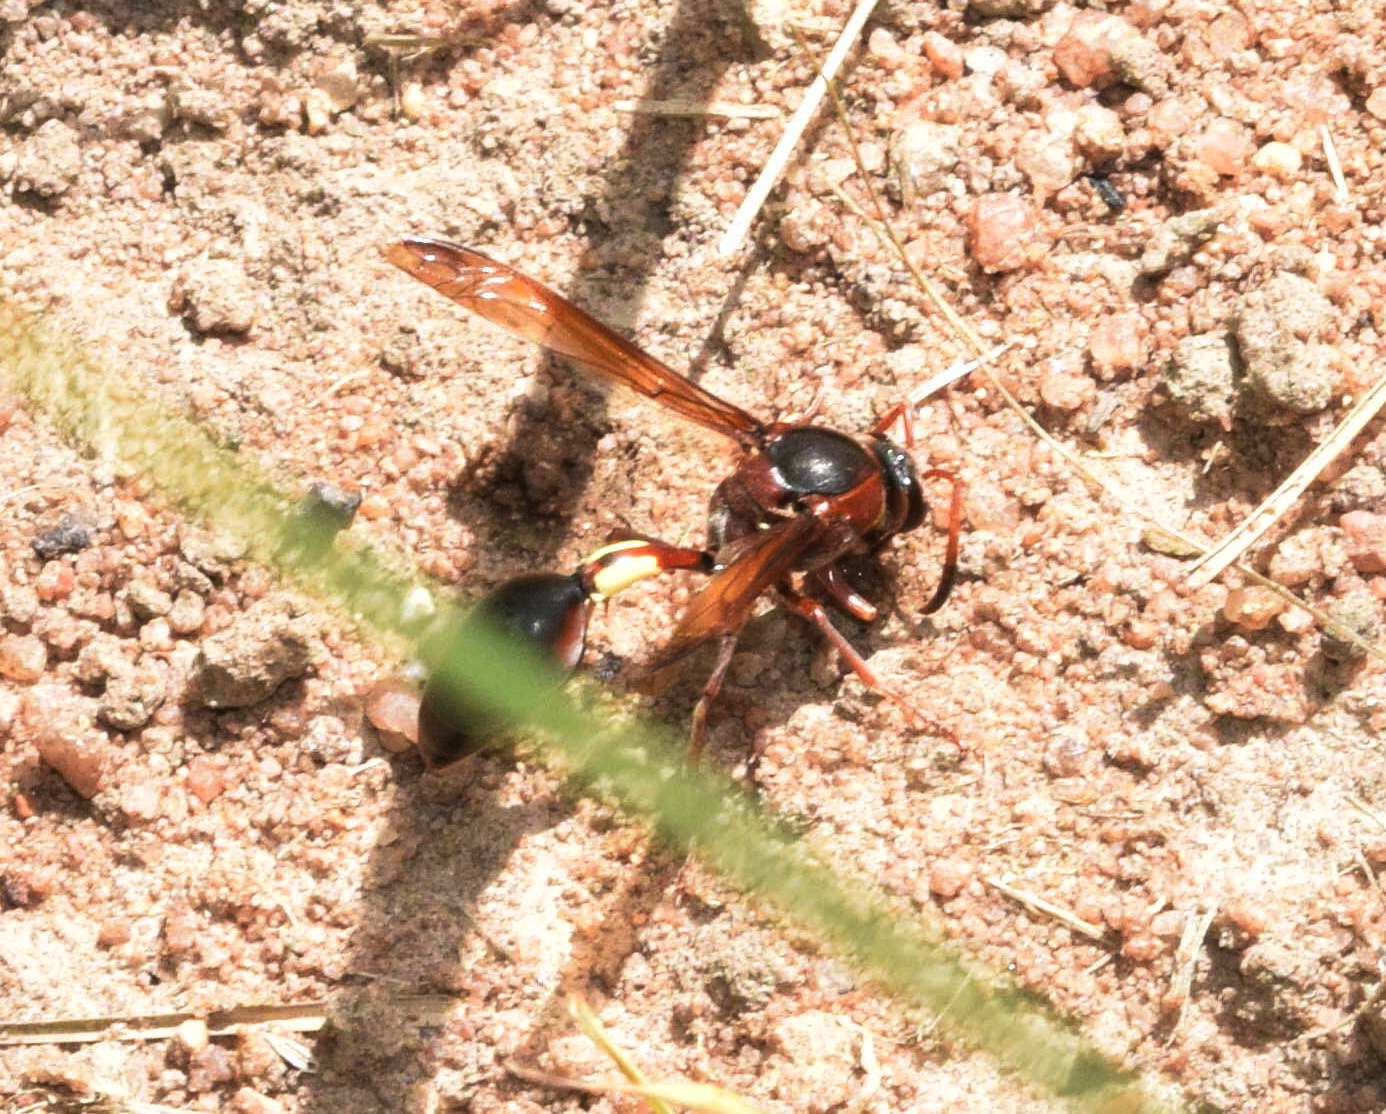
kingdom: Animalia
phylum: Arthropoda
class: Insecta
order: Hymenoptera
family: Eumenidae
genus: Delta
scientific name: Delta fenestrale
